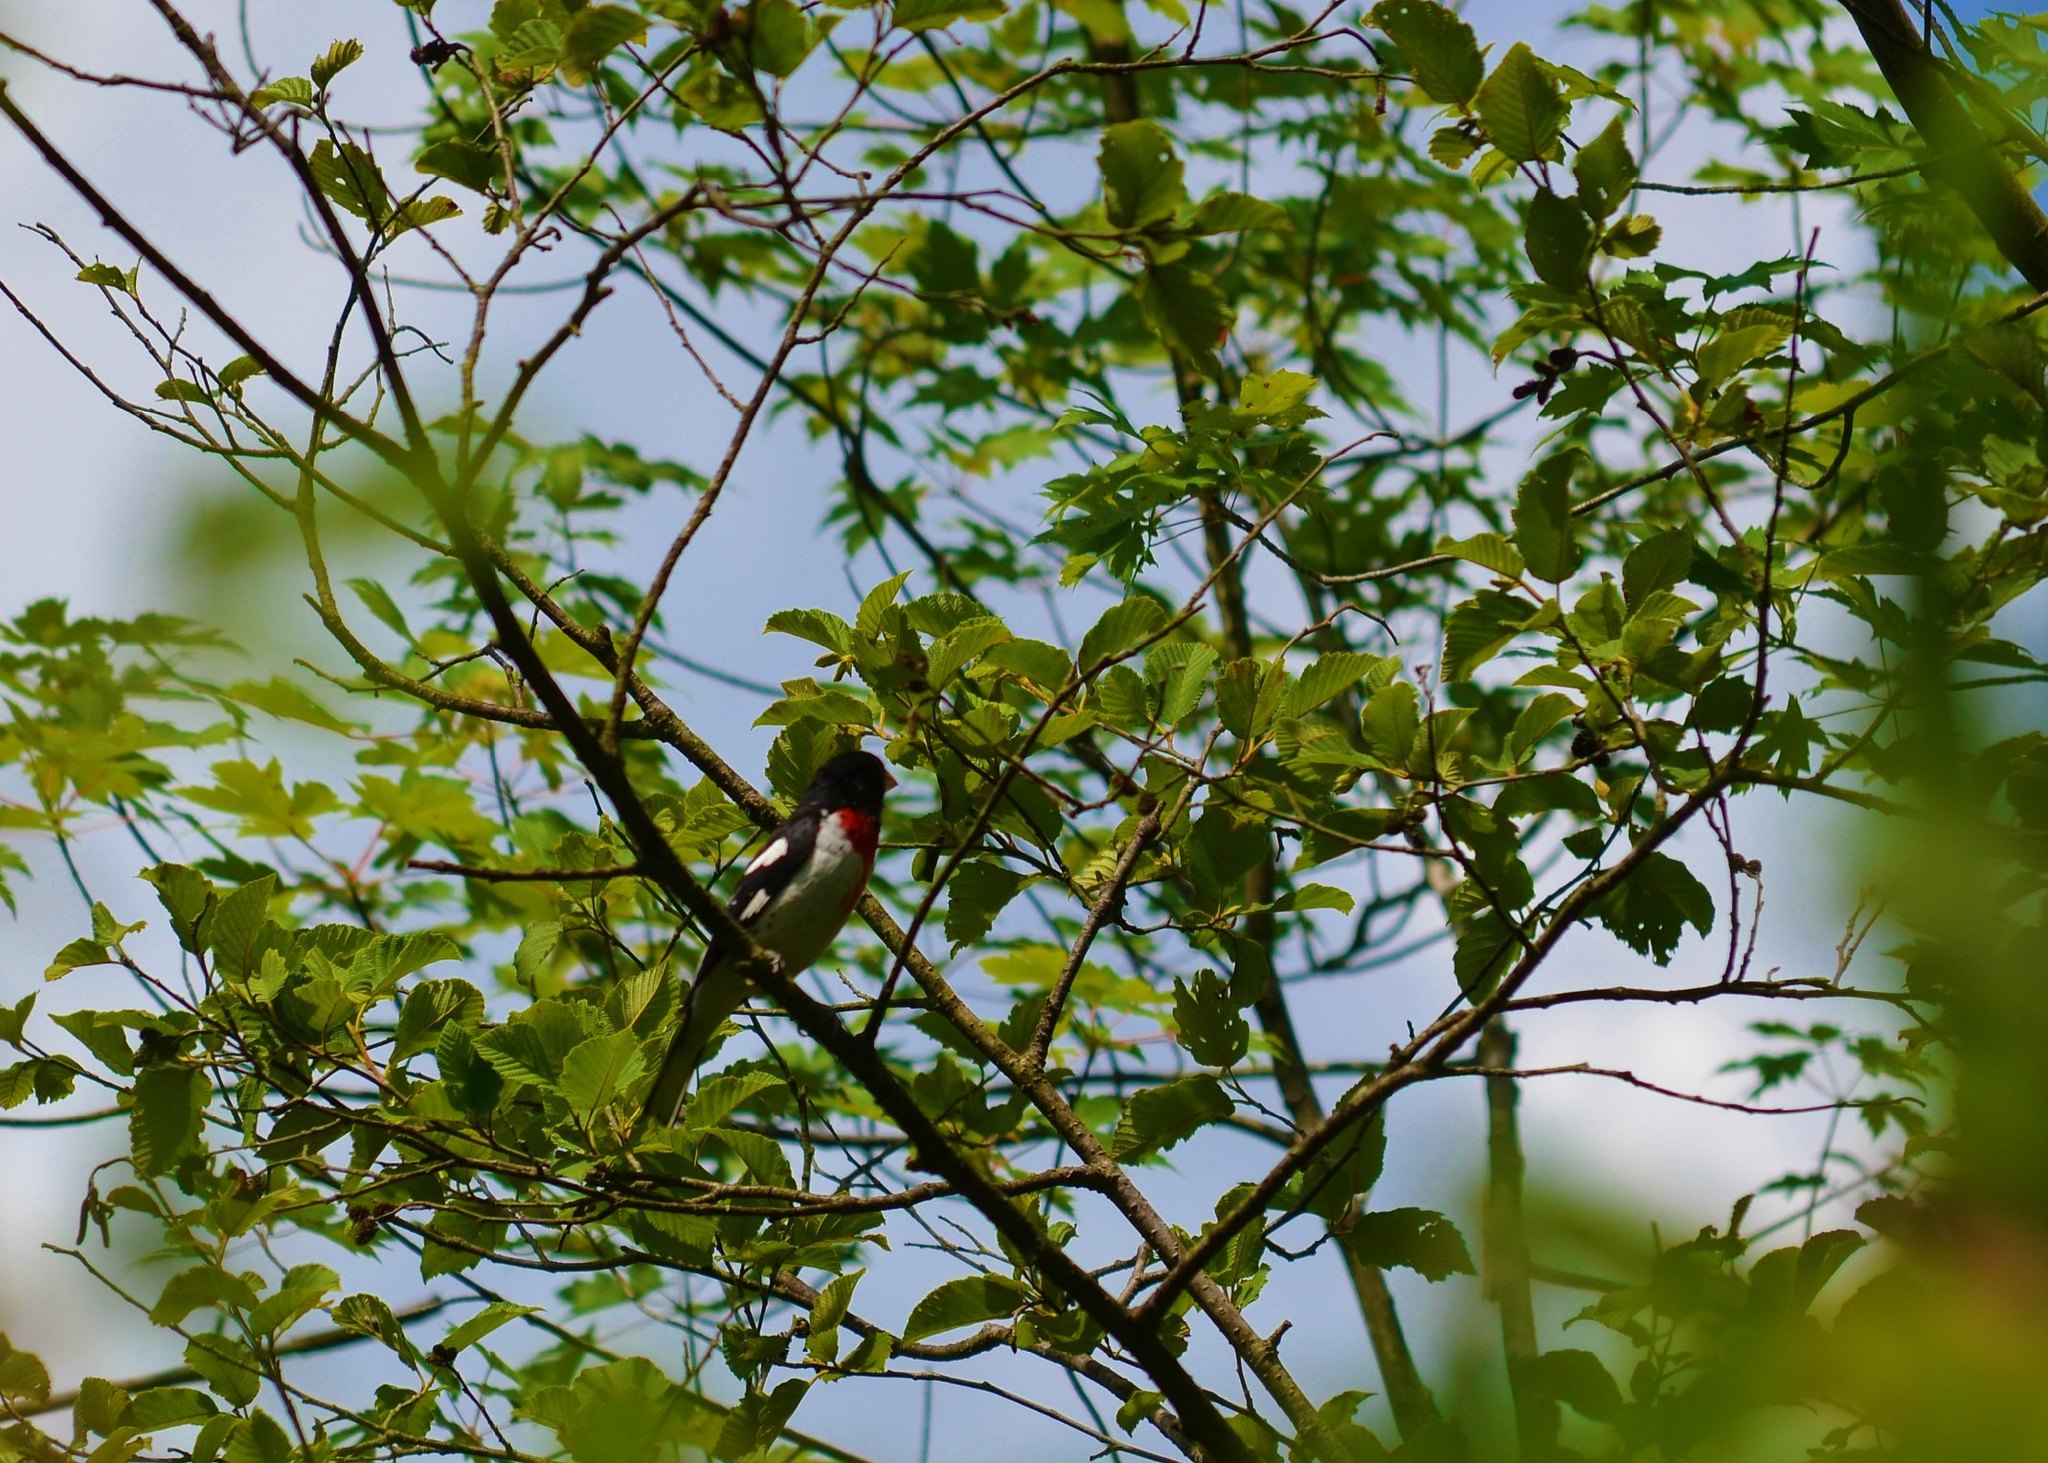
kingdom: Animalia
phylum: Chordata
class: Aves
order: Passeriformes
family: Cardinalidae
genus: Pheucticus
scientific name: Pheucticus ludovicianus
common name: Rose-breasted grosbeak
